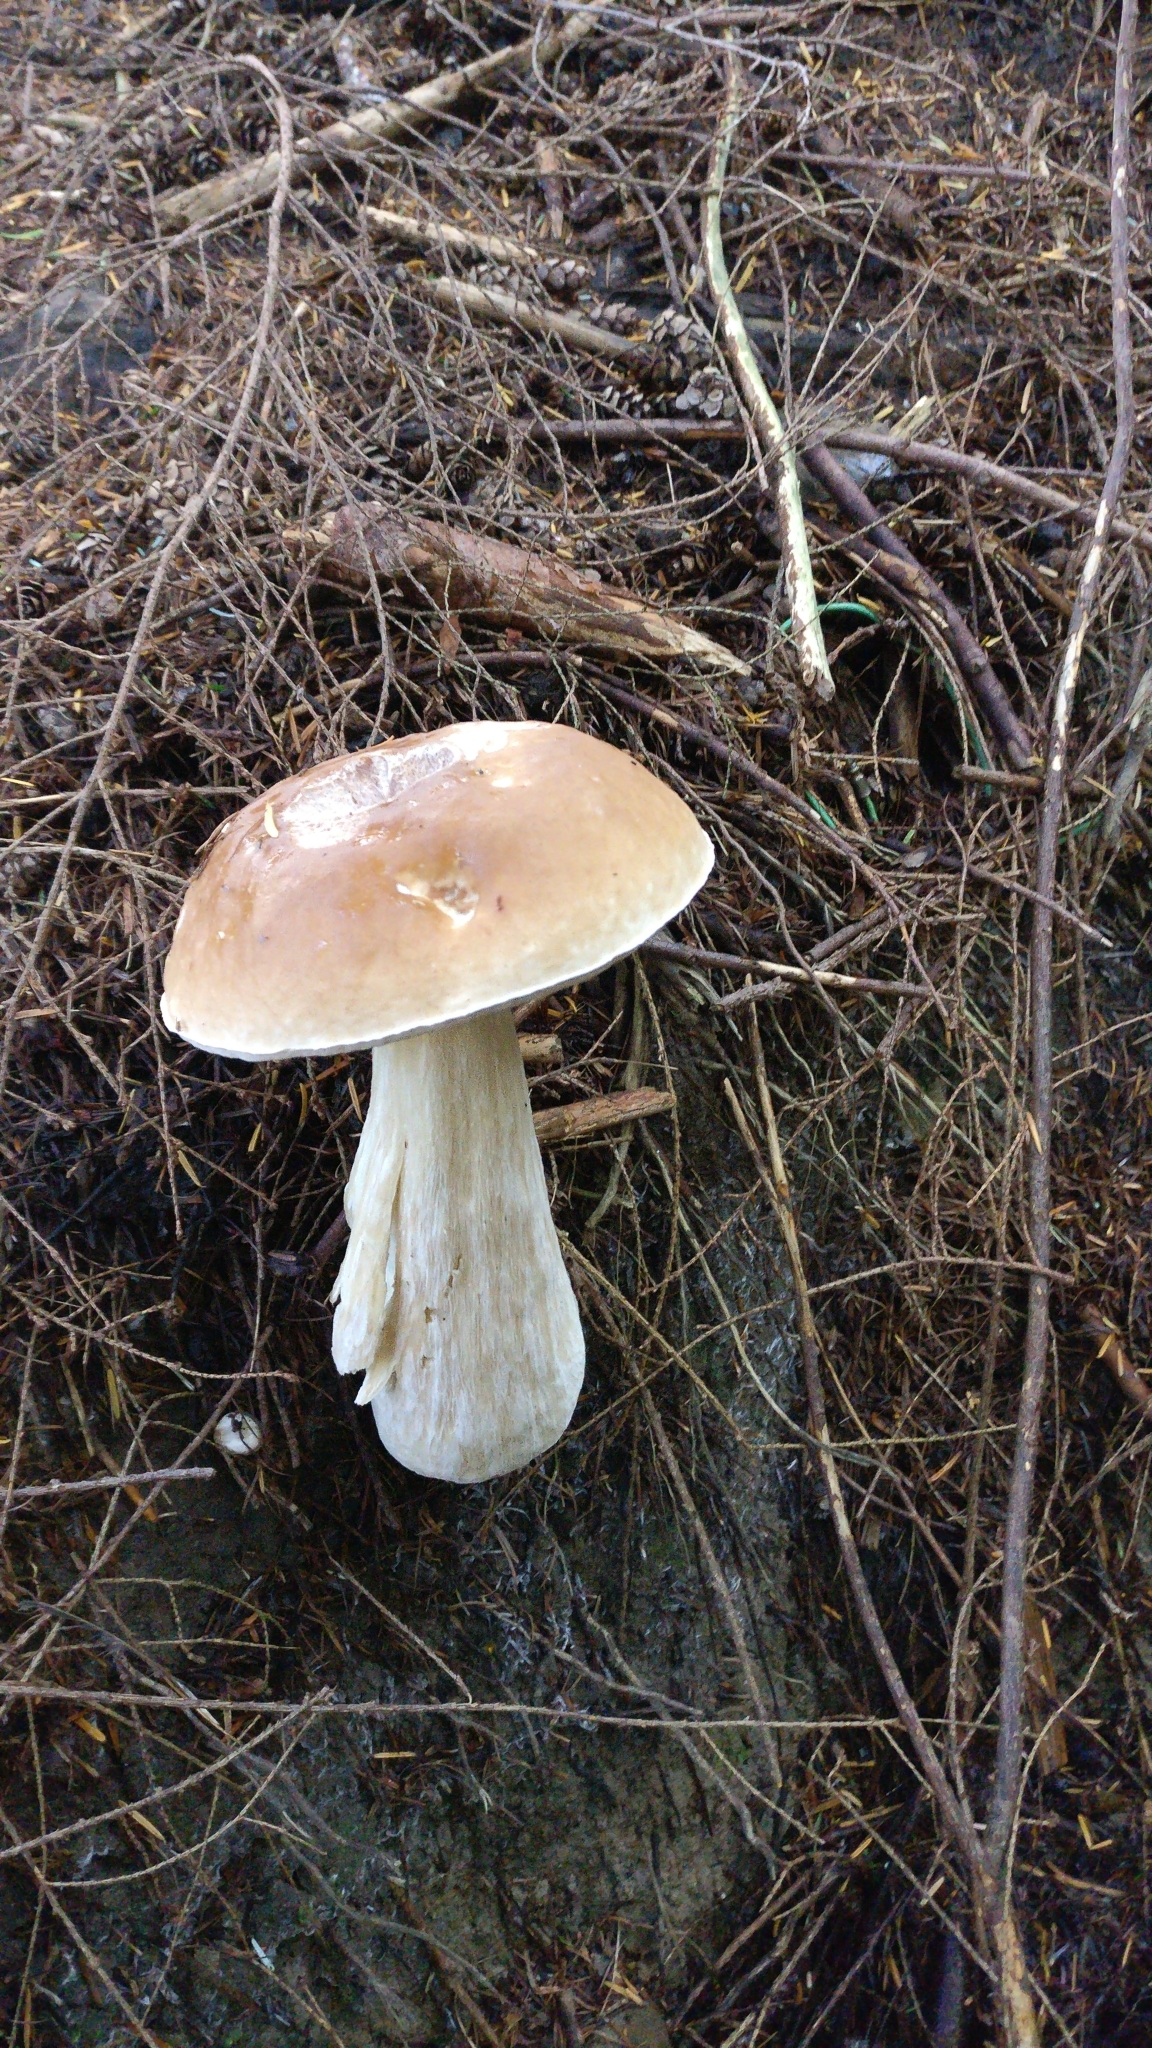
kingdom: Fungi
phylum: Basidiomycota
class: Agaricomycetes
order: Boletales
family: Boletaceae
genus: Boletus
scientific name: Boletus edulis
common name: Cep
